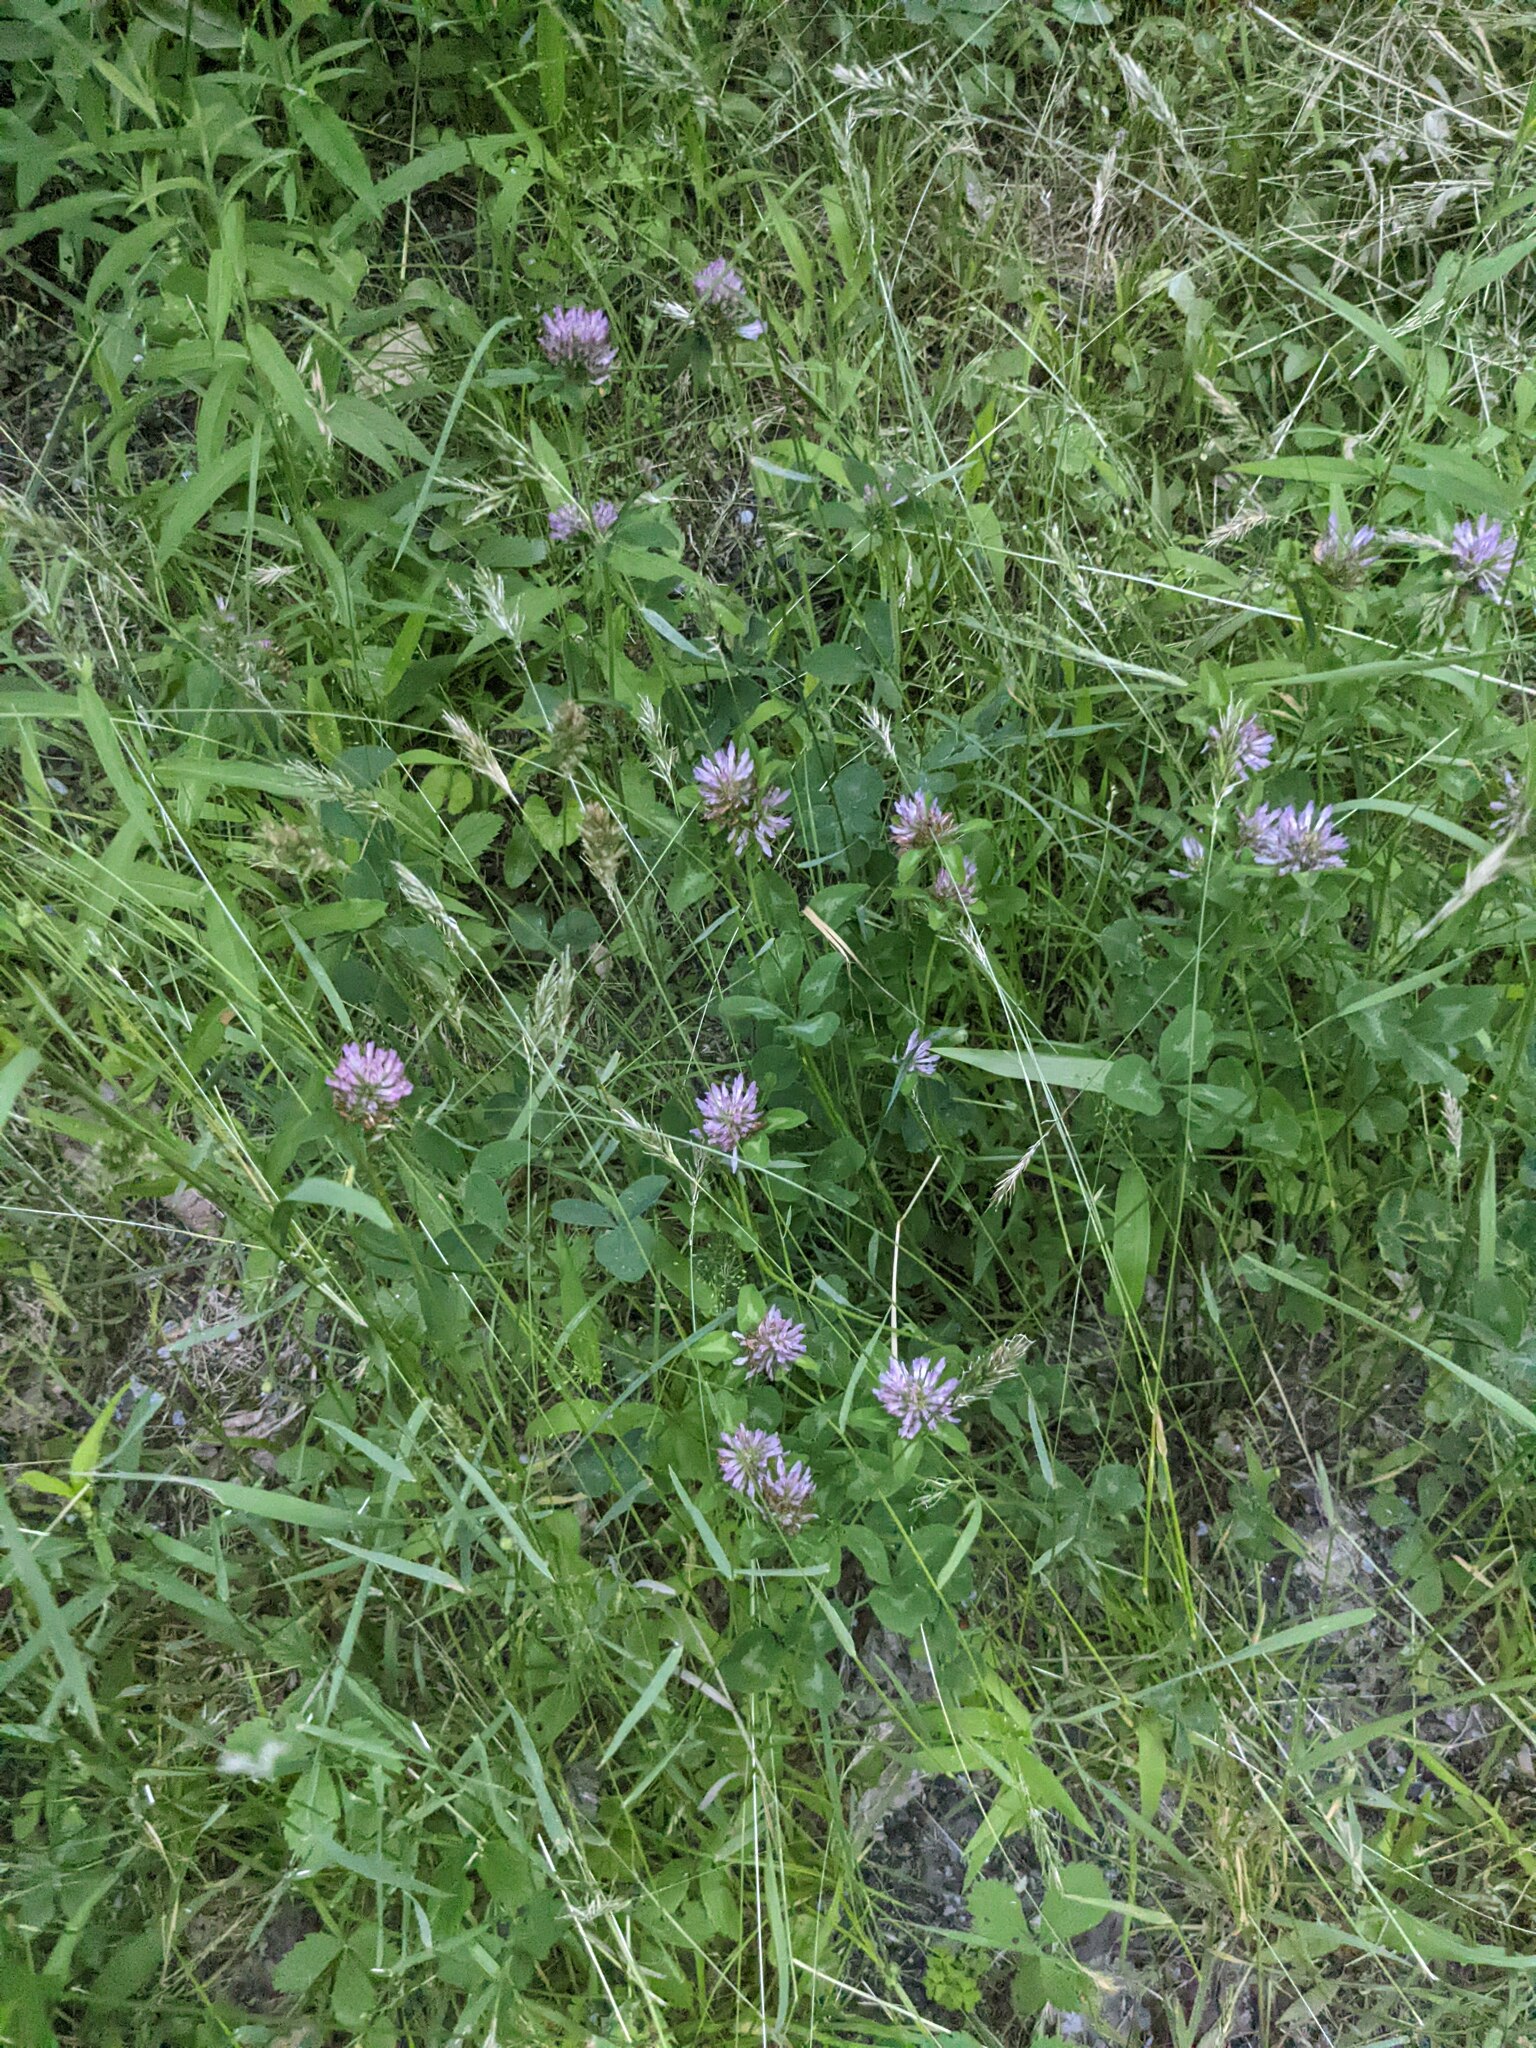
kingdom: Plantae
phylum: Tracheophyta
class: Magnoliopsida
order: Fabales
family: Fabaceae
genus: Trifolium
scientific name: Trifolium pratense
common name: Red clover
